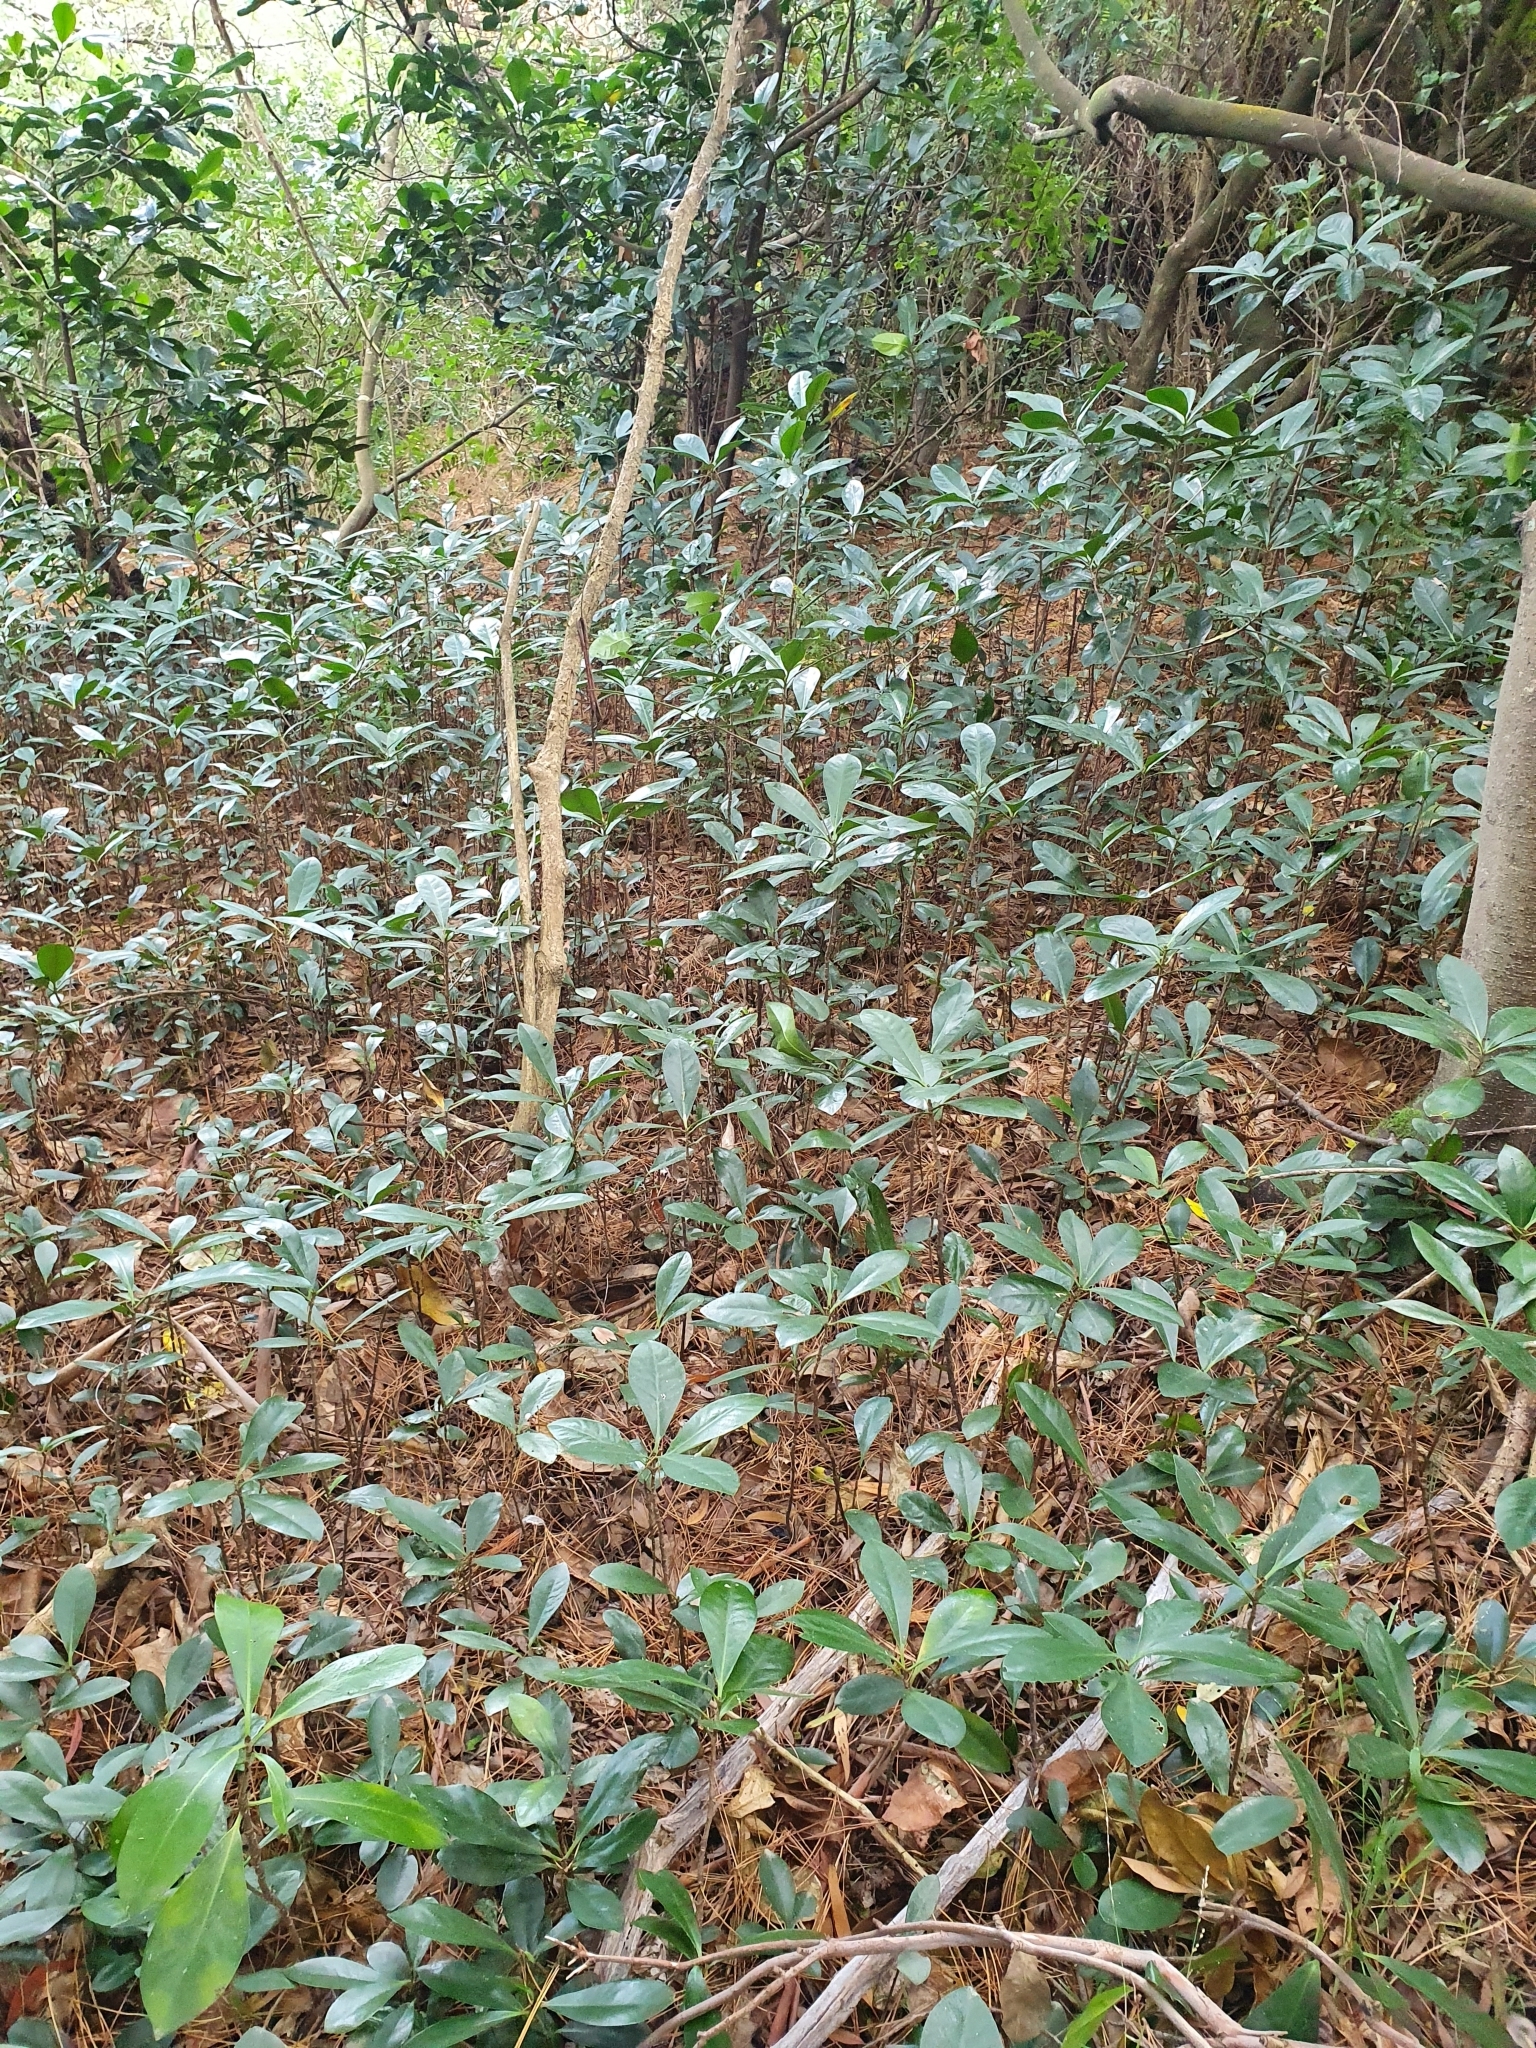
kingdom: Plantae
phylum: Tracheophyta
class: Magnoliopsida
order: Cucurbitales
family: Corynocarpaceae
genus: Corynocarpus
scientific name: Corynocarpus laevigatus
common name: New zealand laurel
